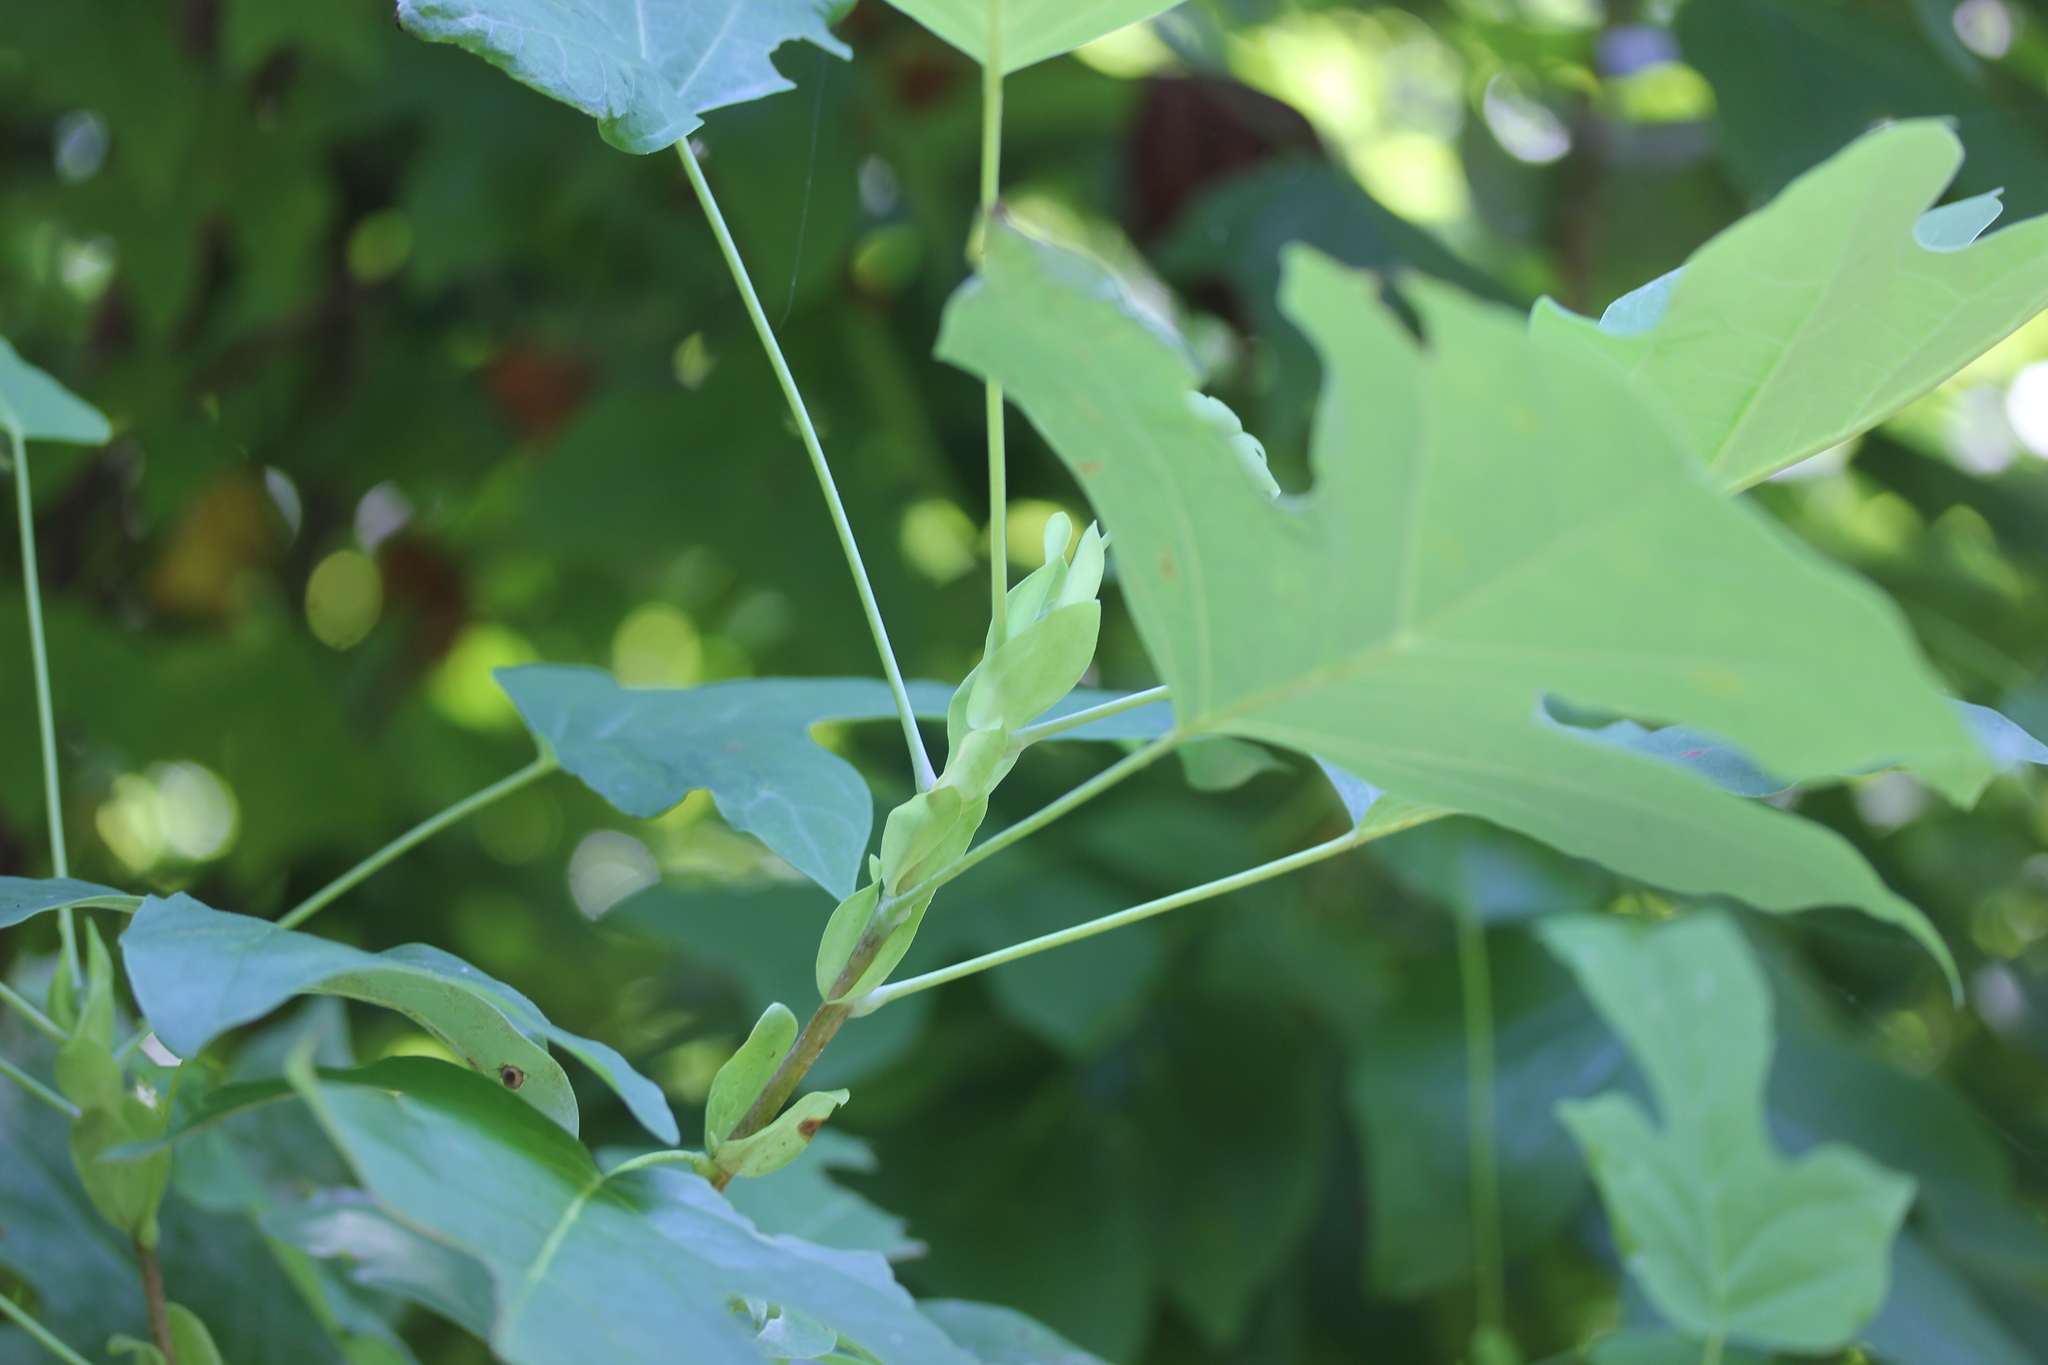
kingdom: Plantae
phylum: Tracheophyta
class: Magnoliopsida
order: Magnoliales
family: Magnoliaceae
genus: Liriodendron
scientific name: Liriodendron tulipifera
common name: Tulip tree
